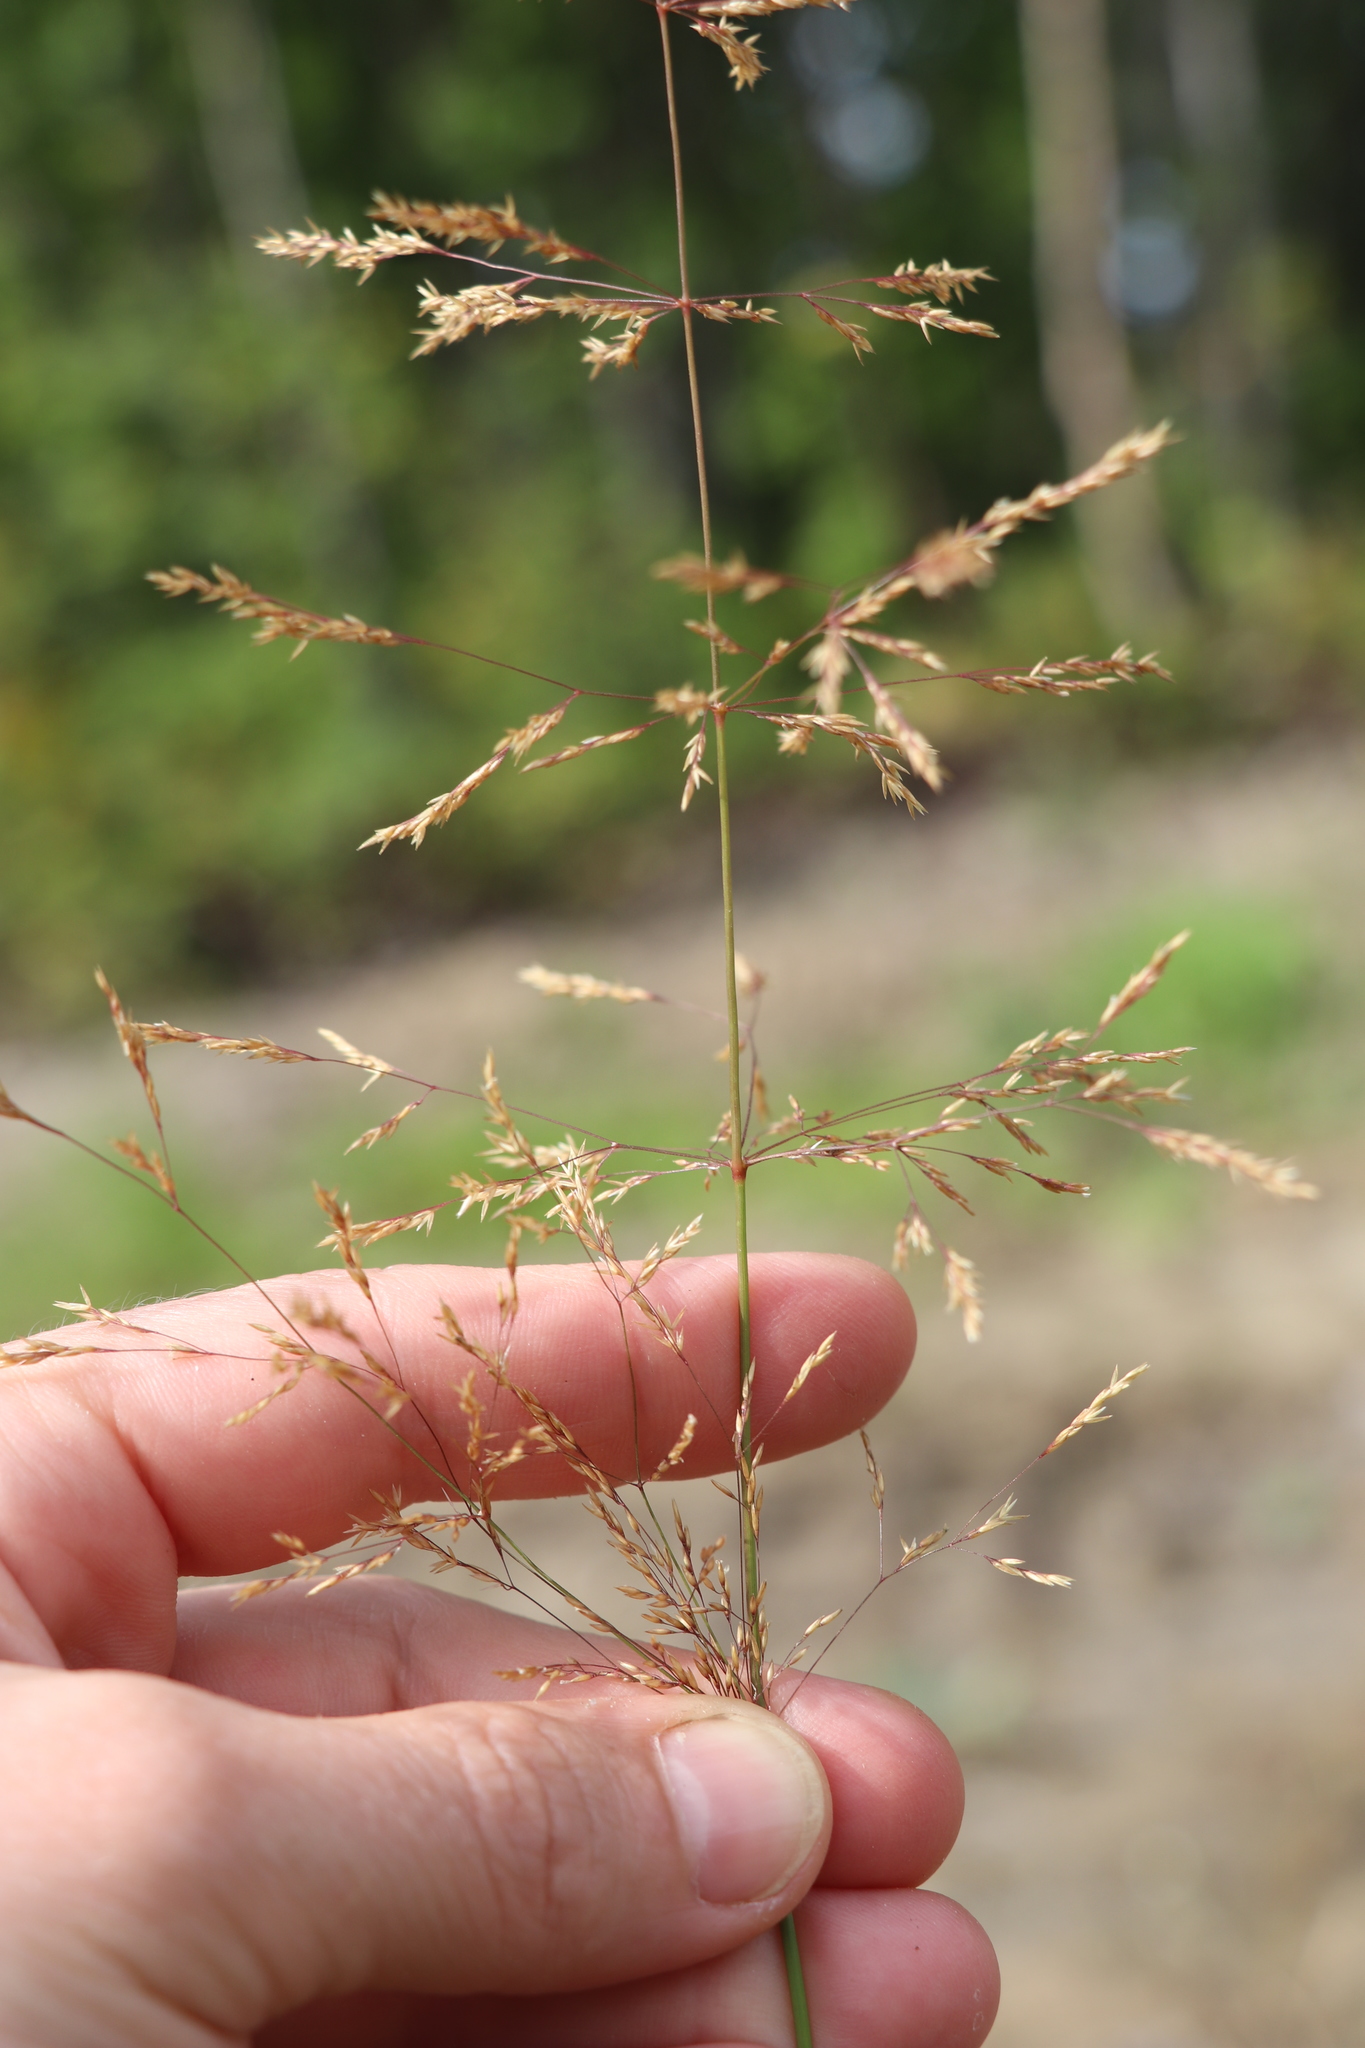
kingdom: Plantae
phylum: Tracheophyta
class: Liliopsida
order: Poales
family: Poaceae
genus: Agrostis
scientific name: Agrostis gigantea
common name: Black bent
